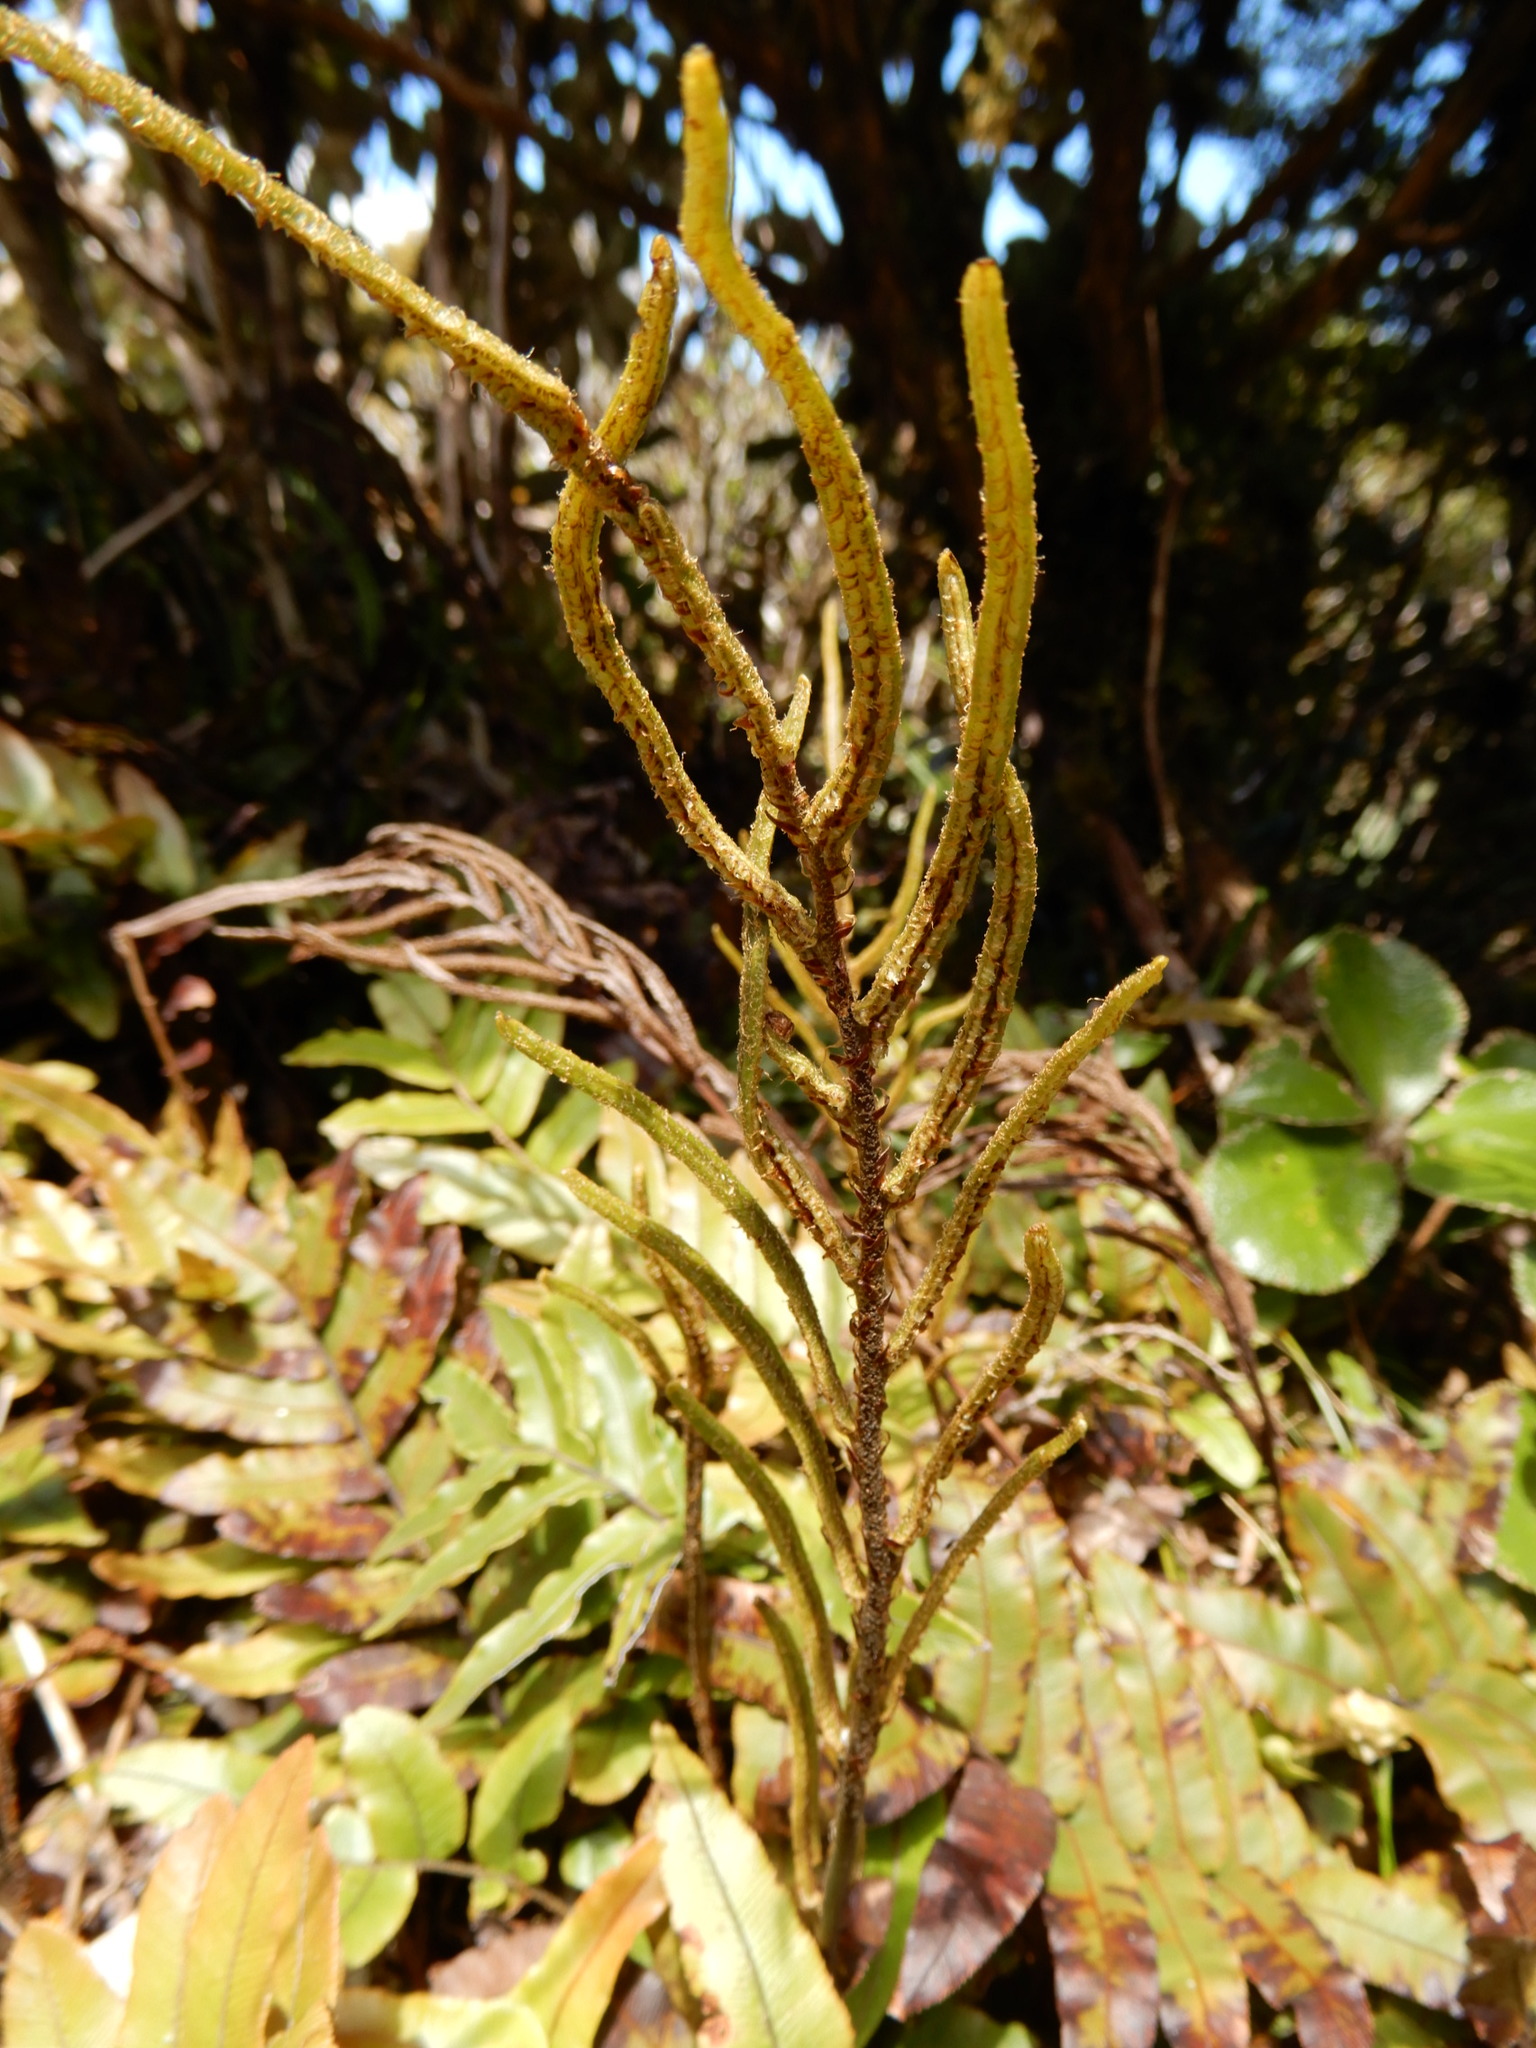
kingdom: Plantae
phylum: Tracheophyta
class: Polypodiopsida
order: Polypodiales
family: Blechnaceae
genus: Parablechnum
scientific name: Parablechnum procerum
